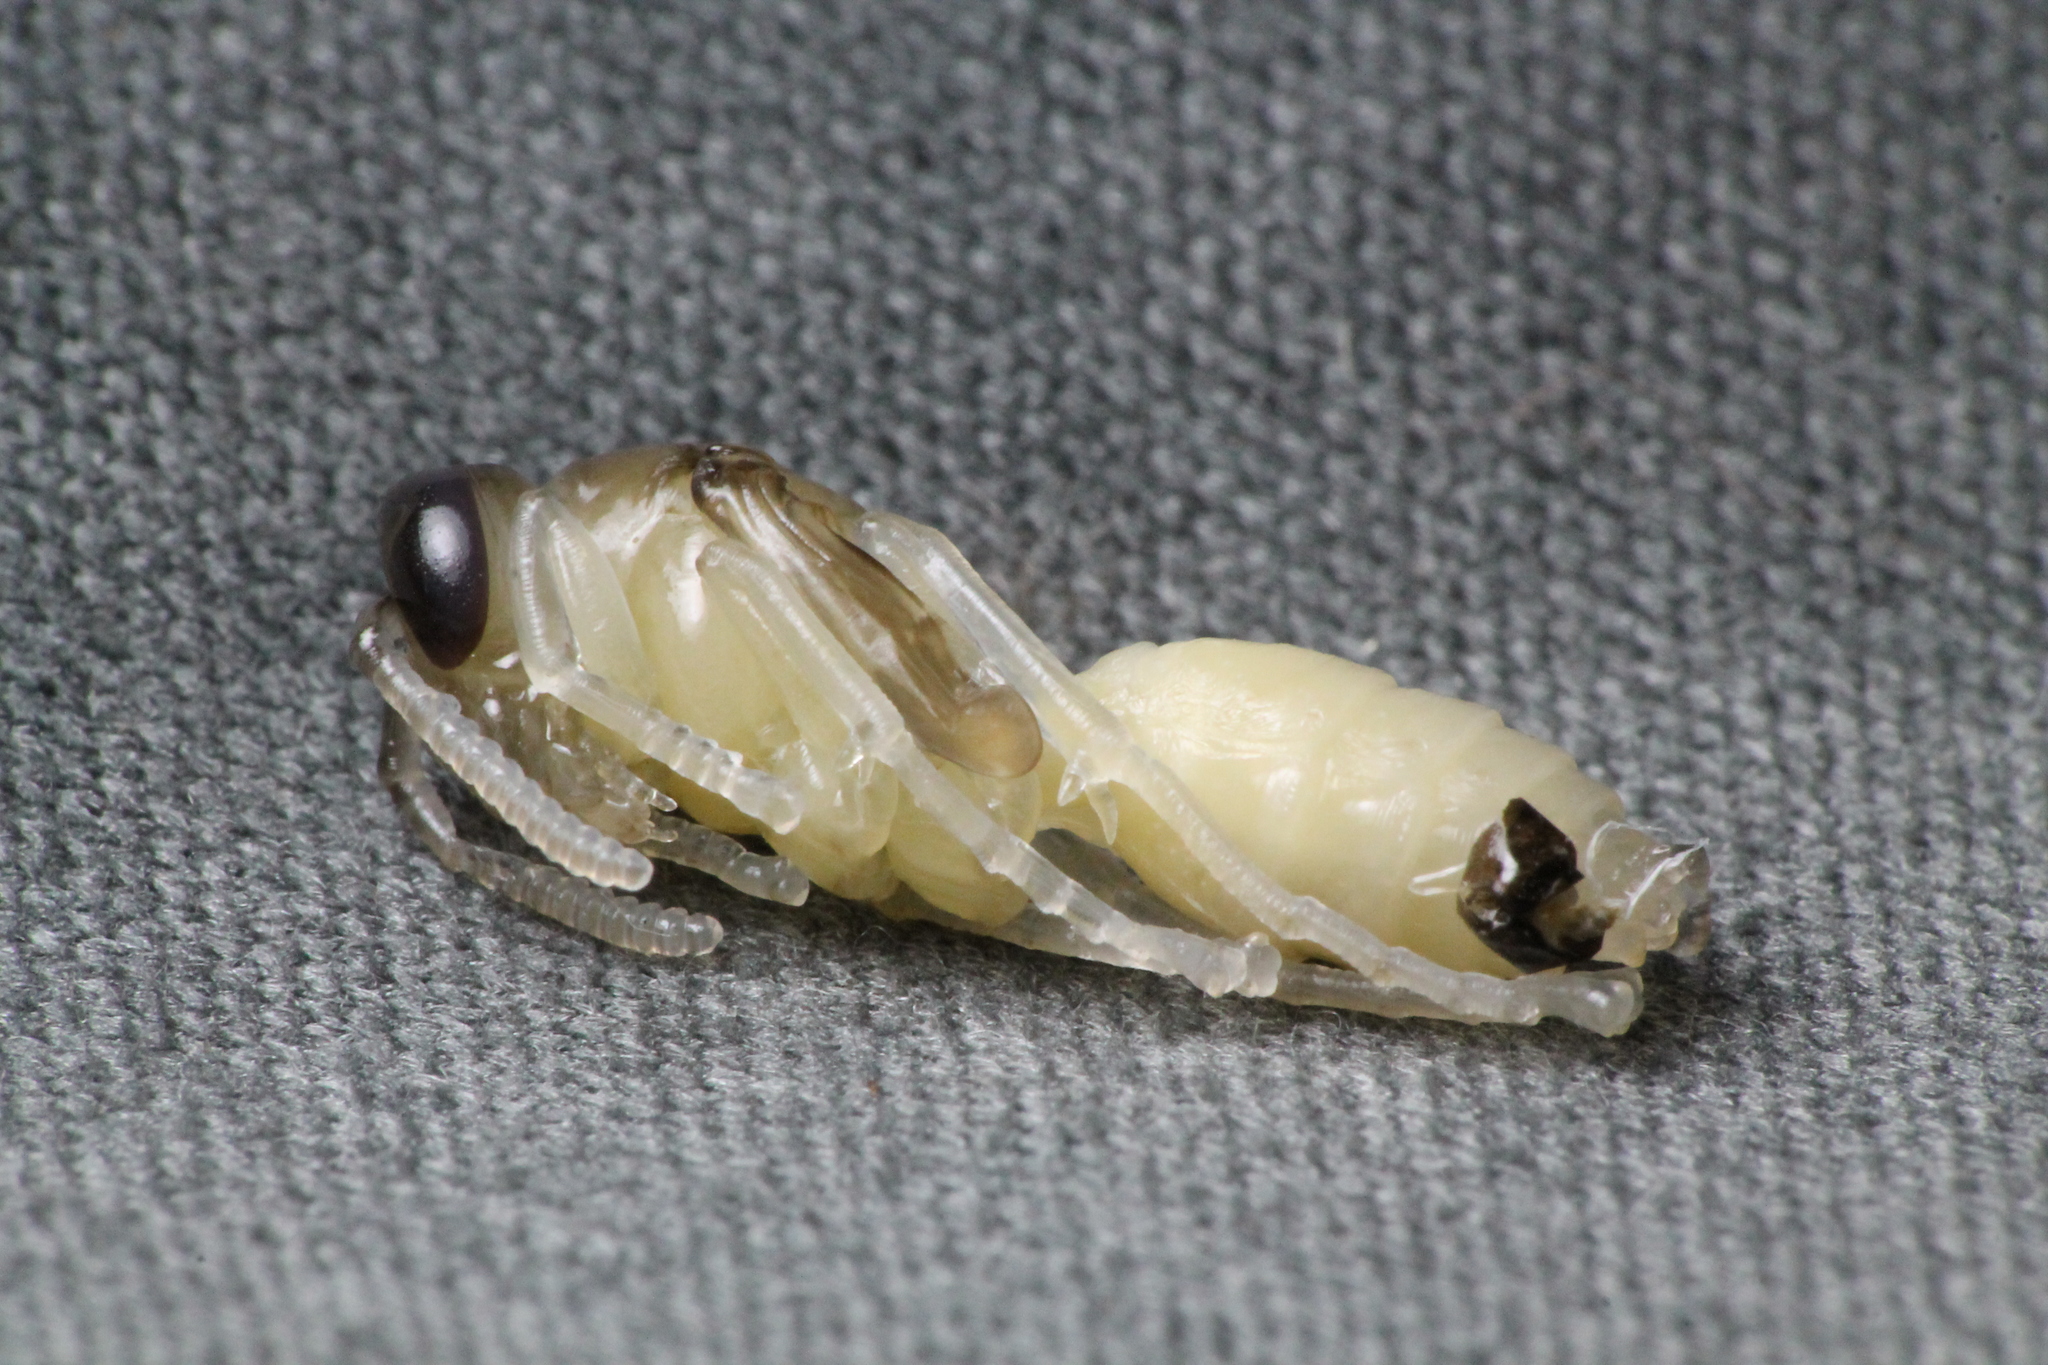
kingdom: Animalia
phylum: Arthropoda
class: Insecta
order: Hymenoptera
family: Eumenidae
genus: Polistes
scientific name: Polistes chinensis
